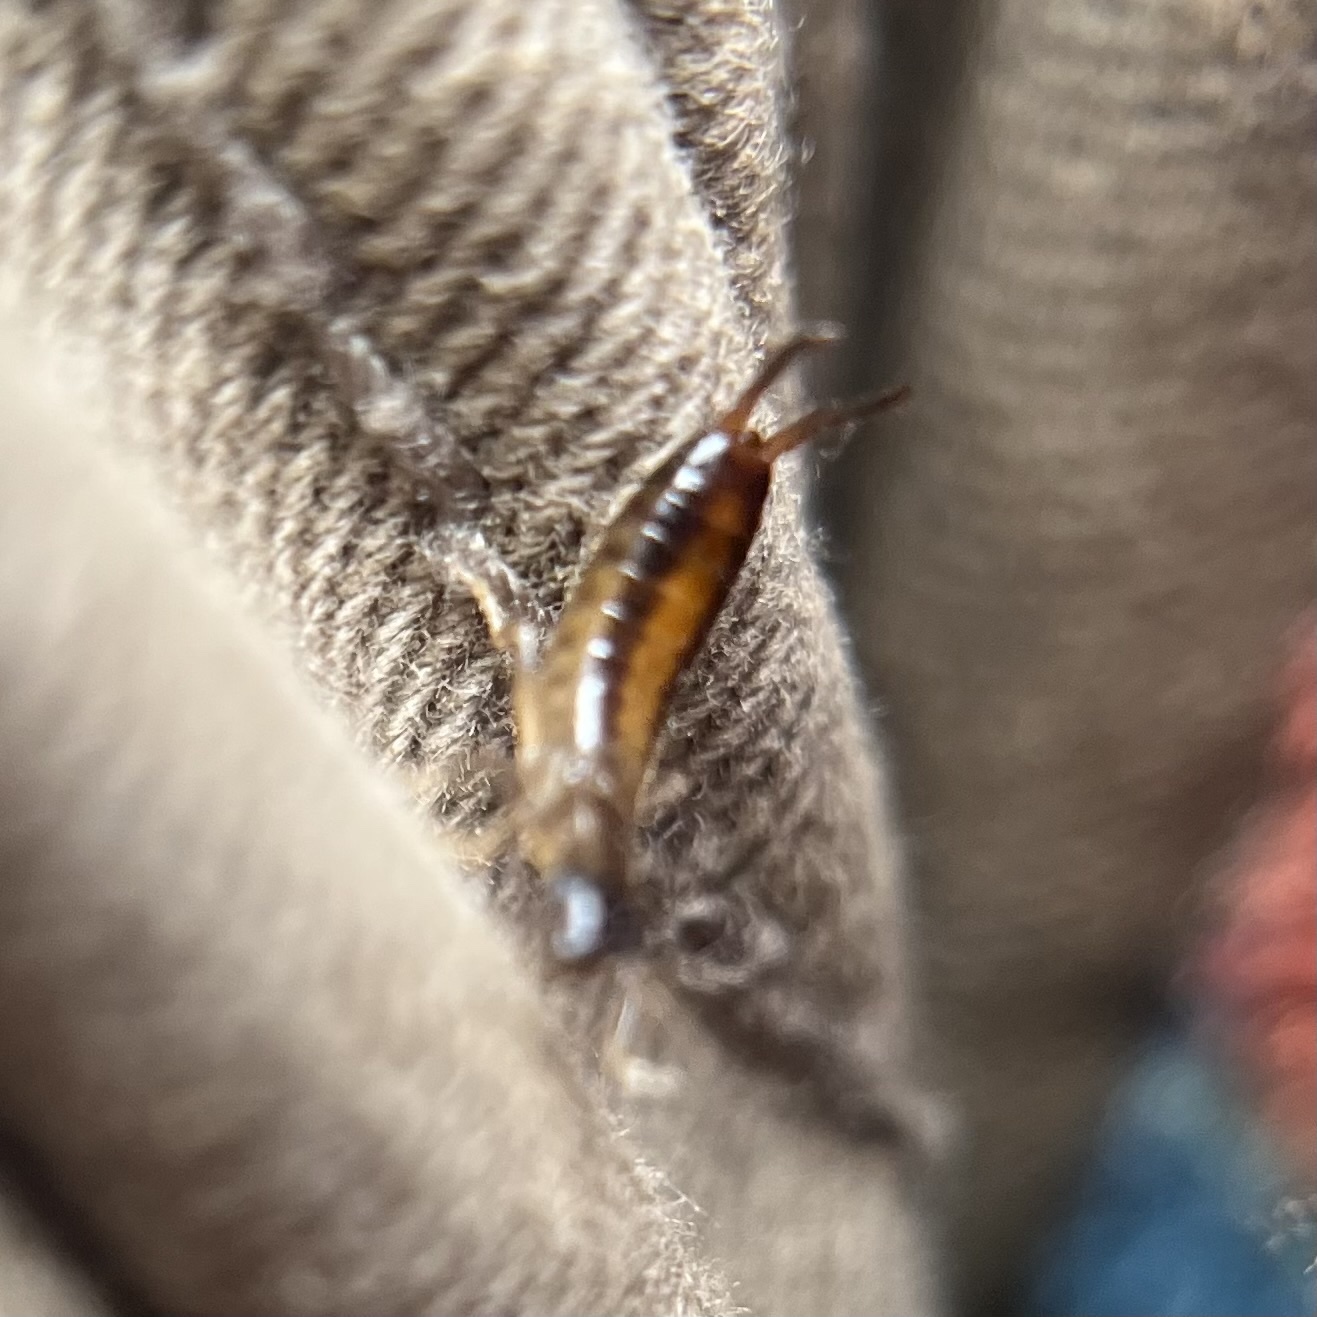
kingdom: Animalia
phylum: Arthropoda
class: Insecta
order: Dermaptera
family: Forficulidae
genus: Apterygida
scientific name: Apterygida albipennis
